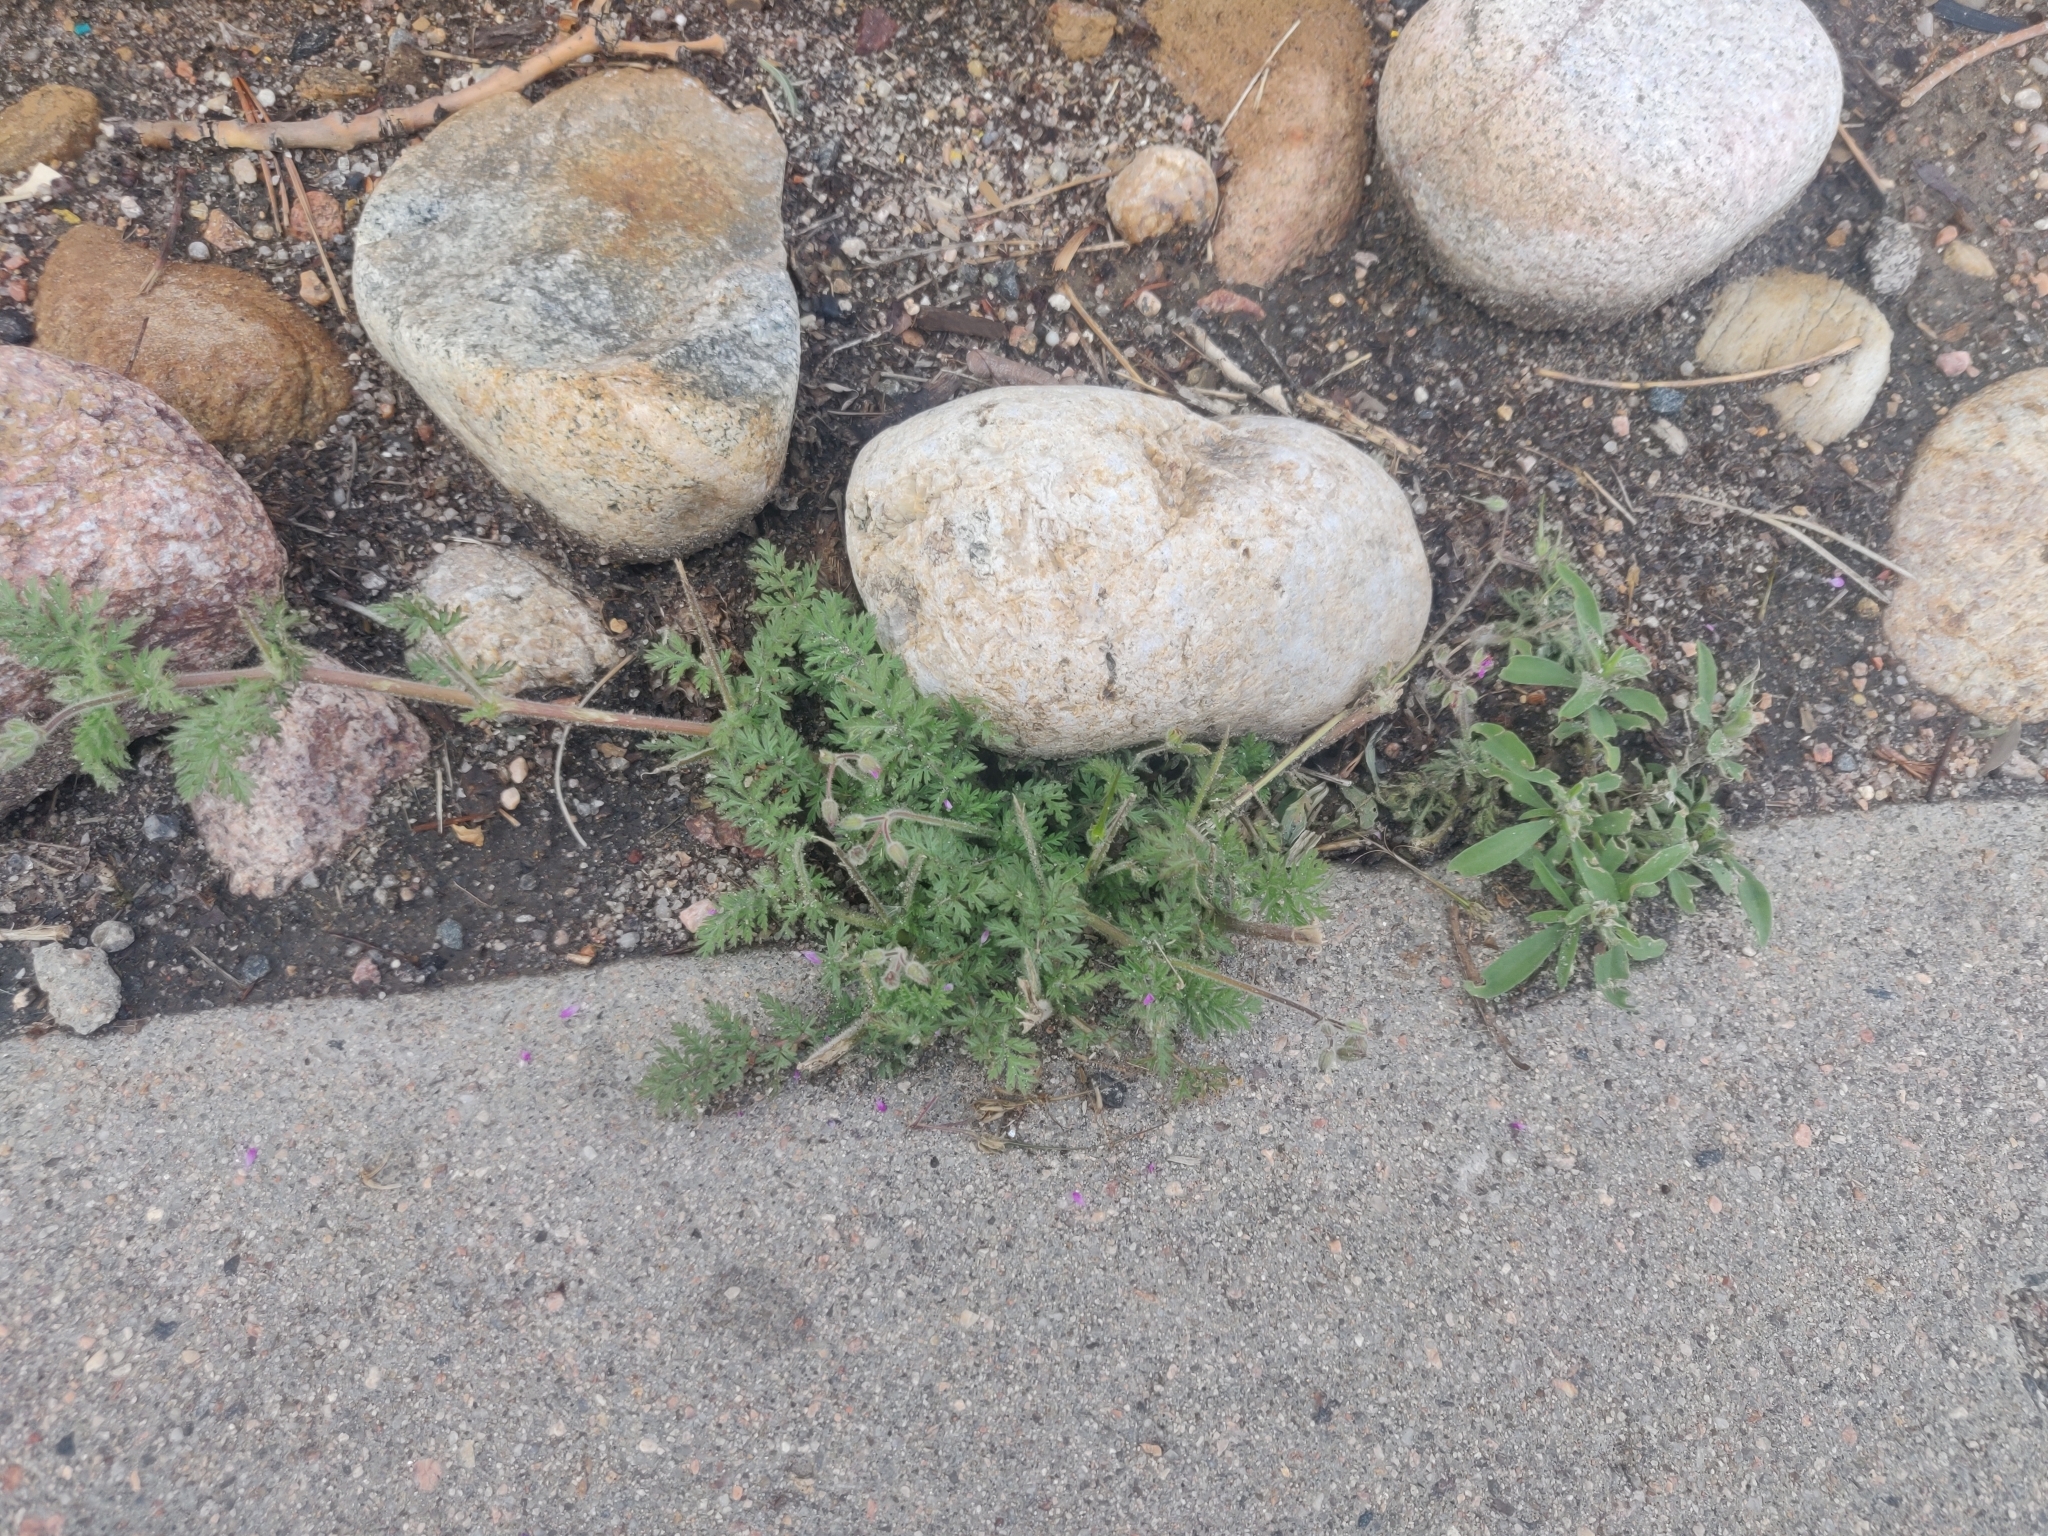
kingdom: Plantae
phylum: Tracheophyta
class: Magnoliopsida
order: Geraniales
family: Geraniaceae
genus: Erodium
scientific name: Erodium cicutarium
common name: Common stork's-bill
